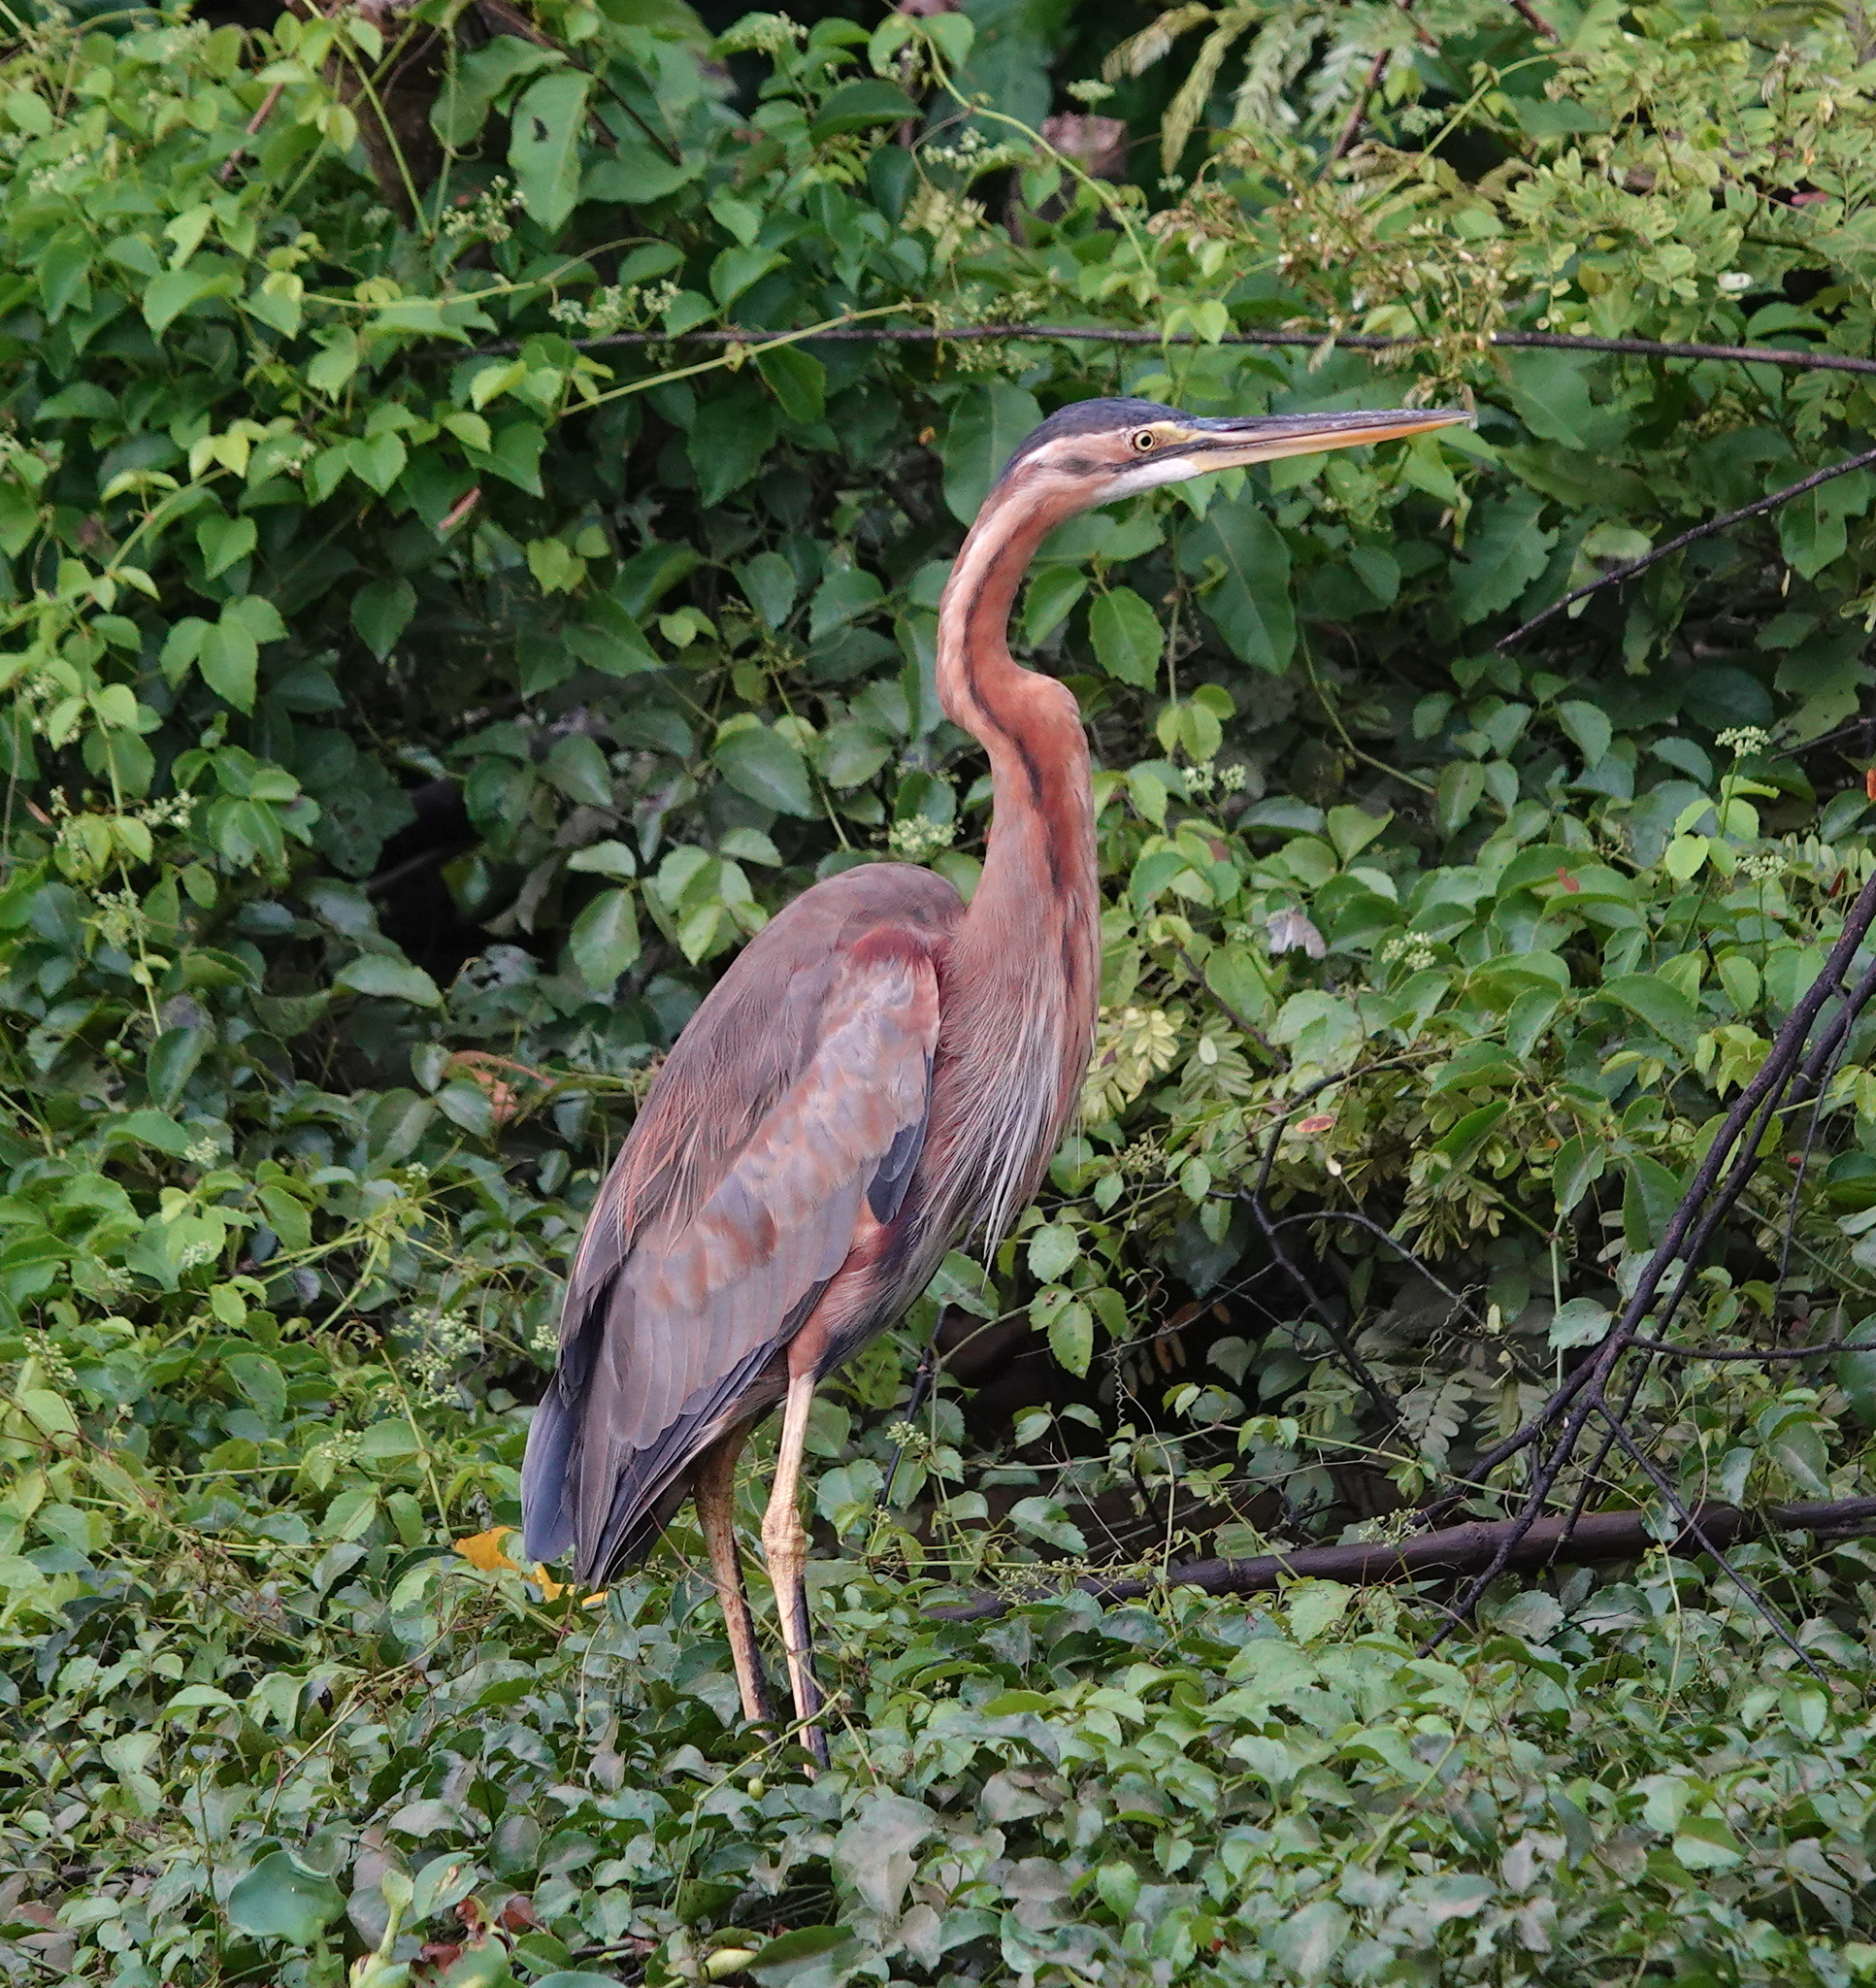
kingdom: Animalia
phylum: Chordata
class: Aves
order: Pelecaniformes
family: Ardeidae
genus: Ardea
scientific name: Ardea purpurea
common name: Purple heron
